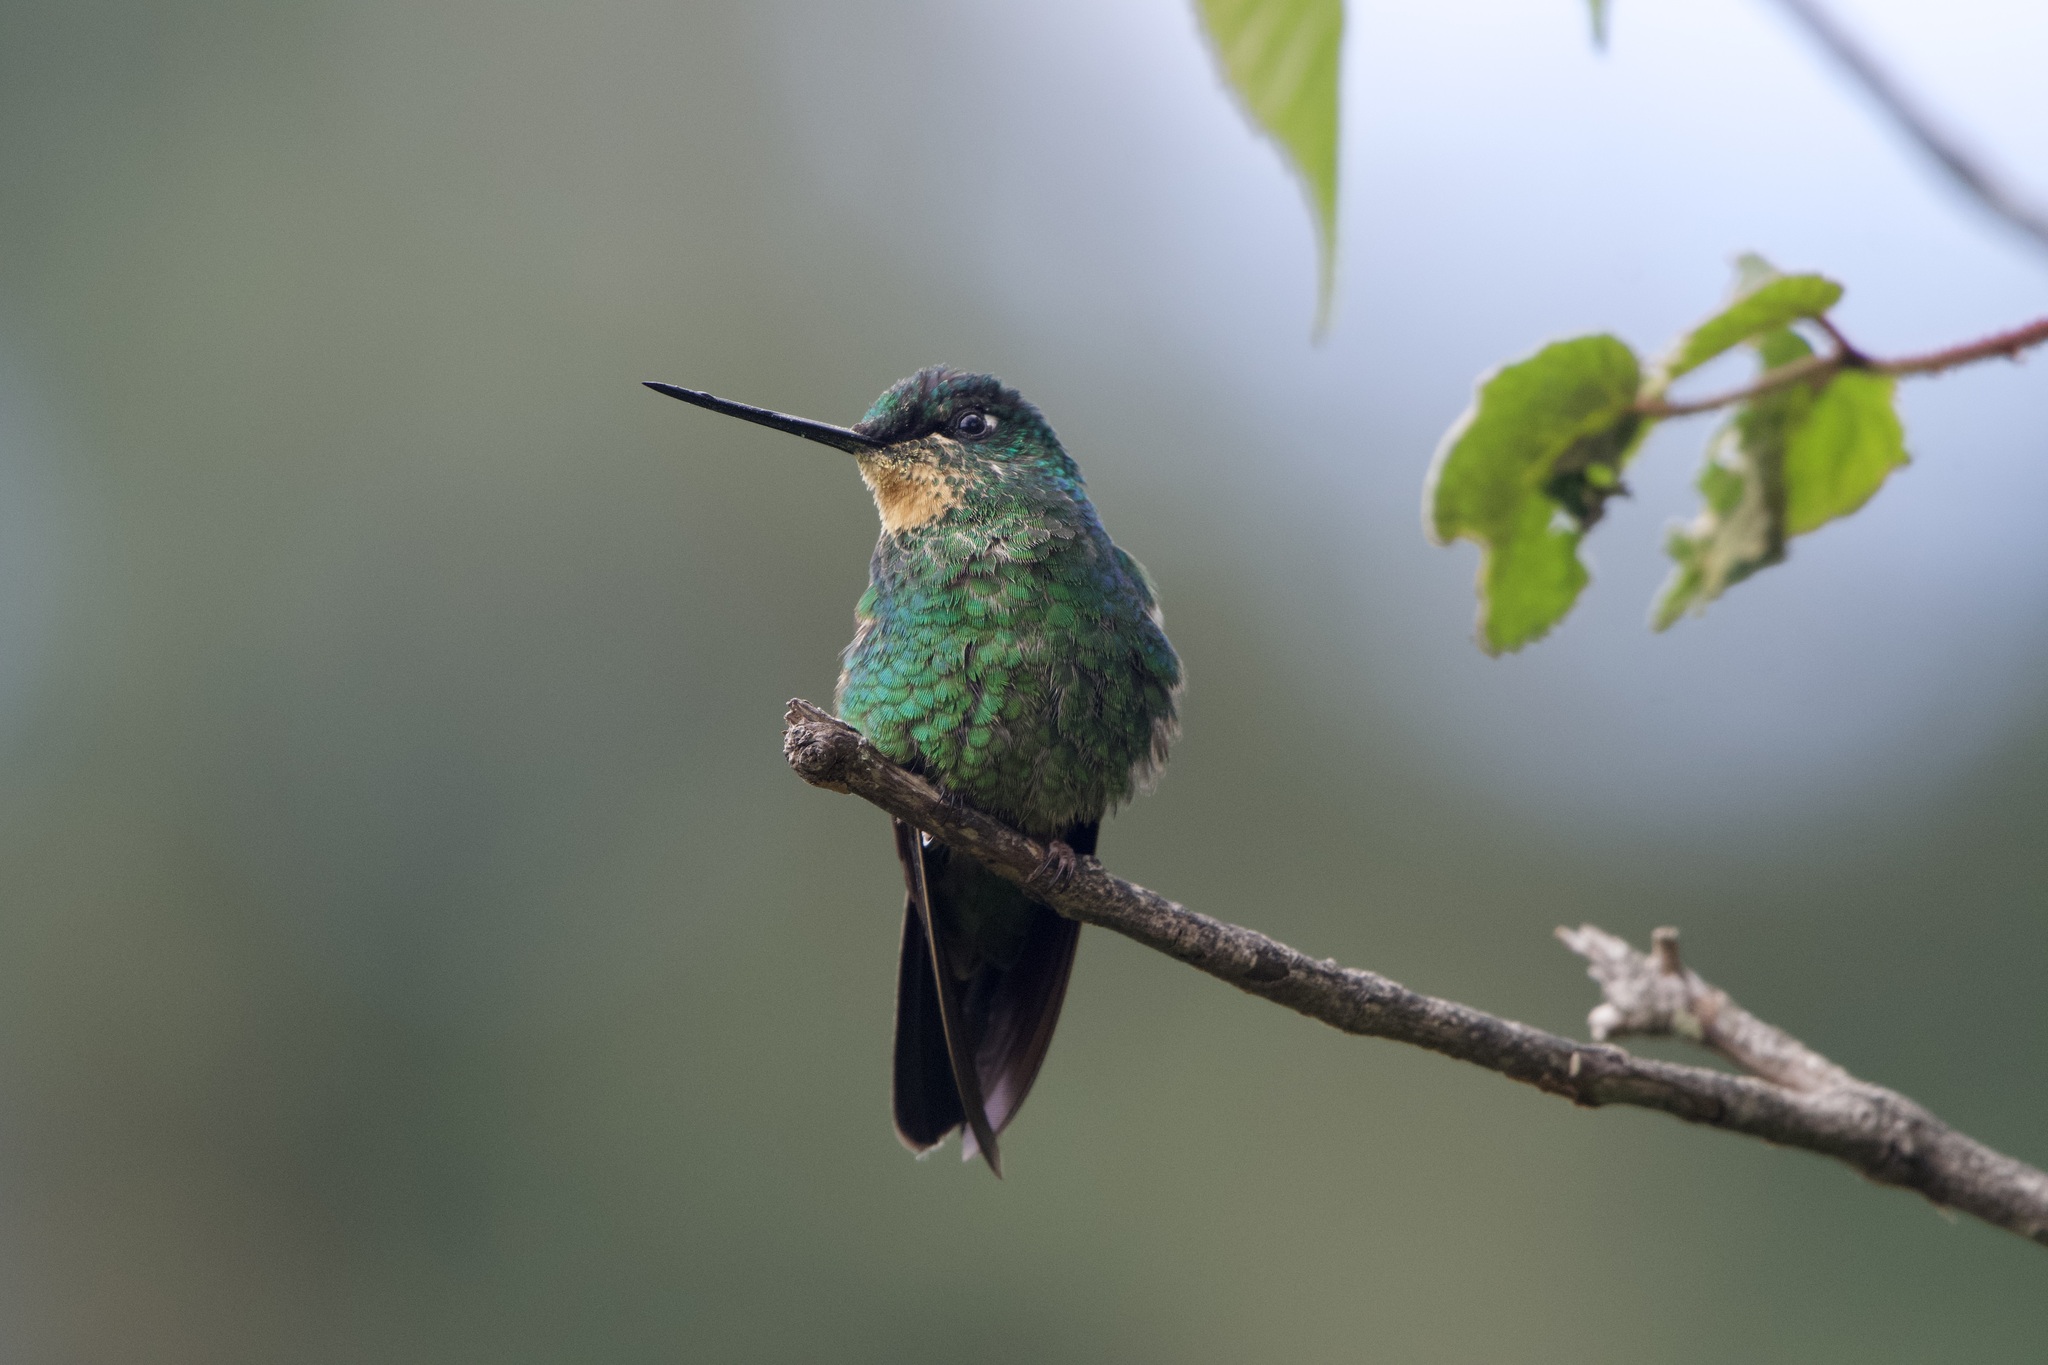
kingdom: Animalia
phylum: Chordata
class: Aves
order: Apodiformes
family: Trochilidae
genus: Coeligena
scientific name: Coeligena lutetiae
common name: Buff-winged starfrontlet
